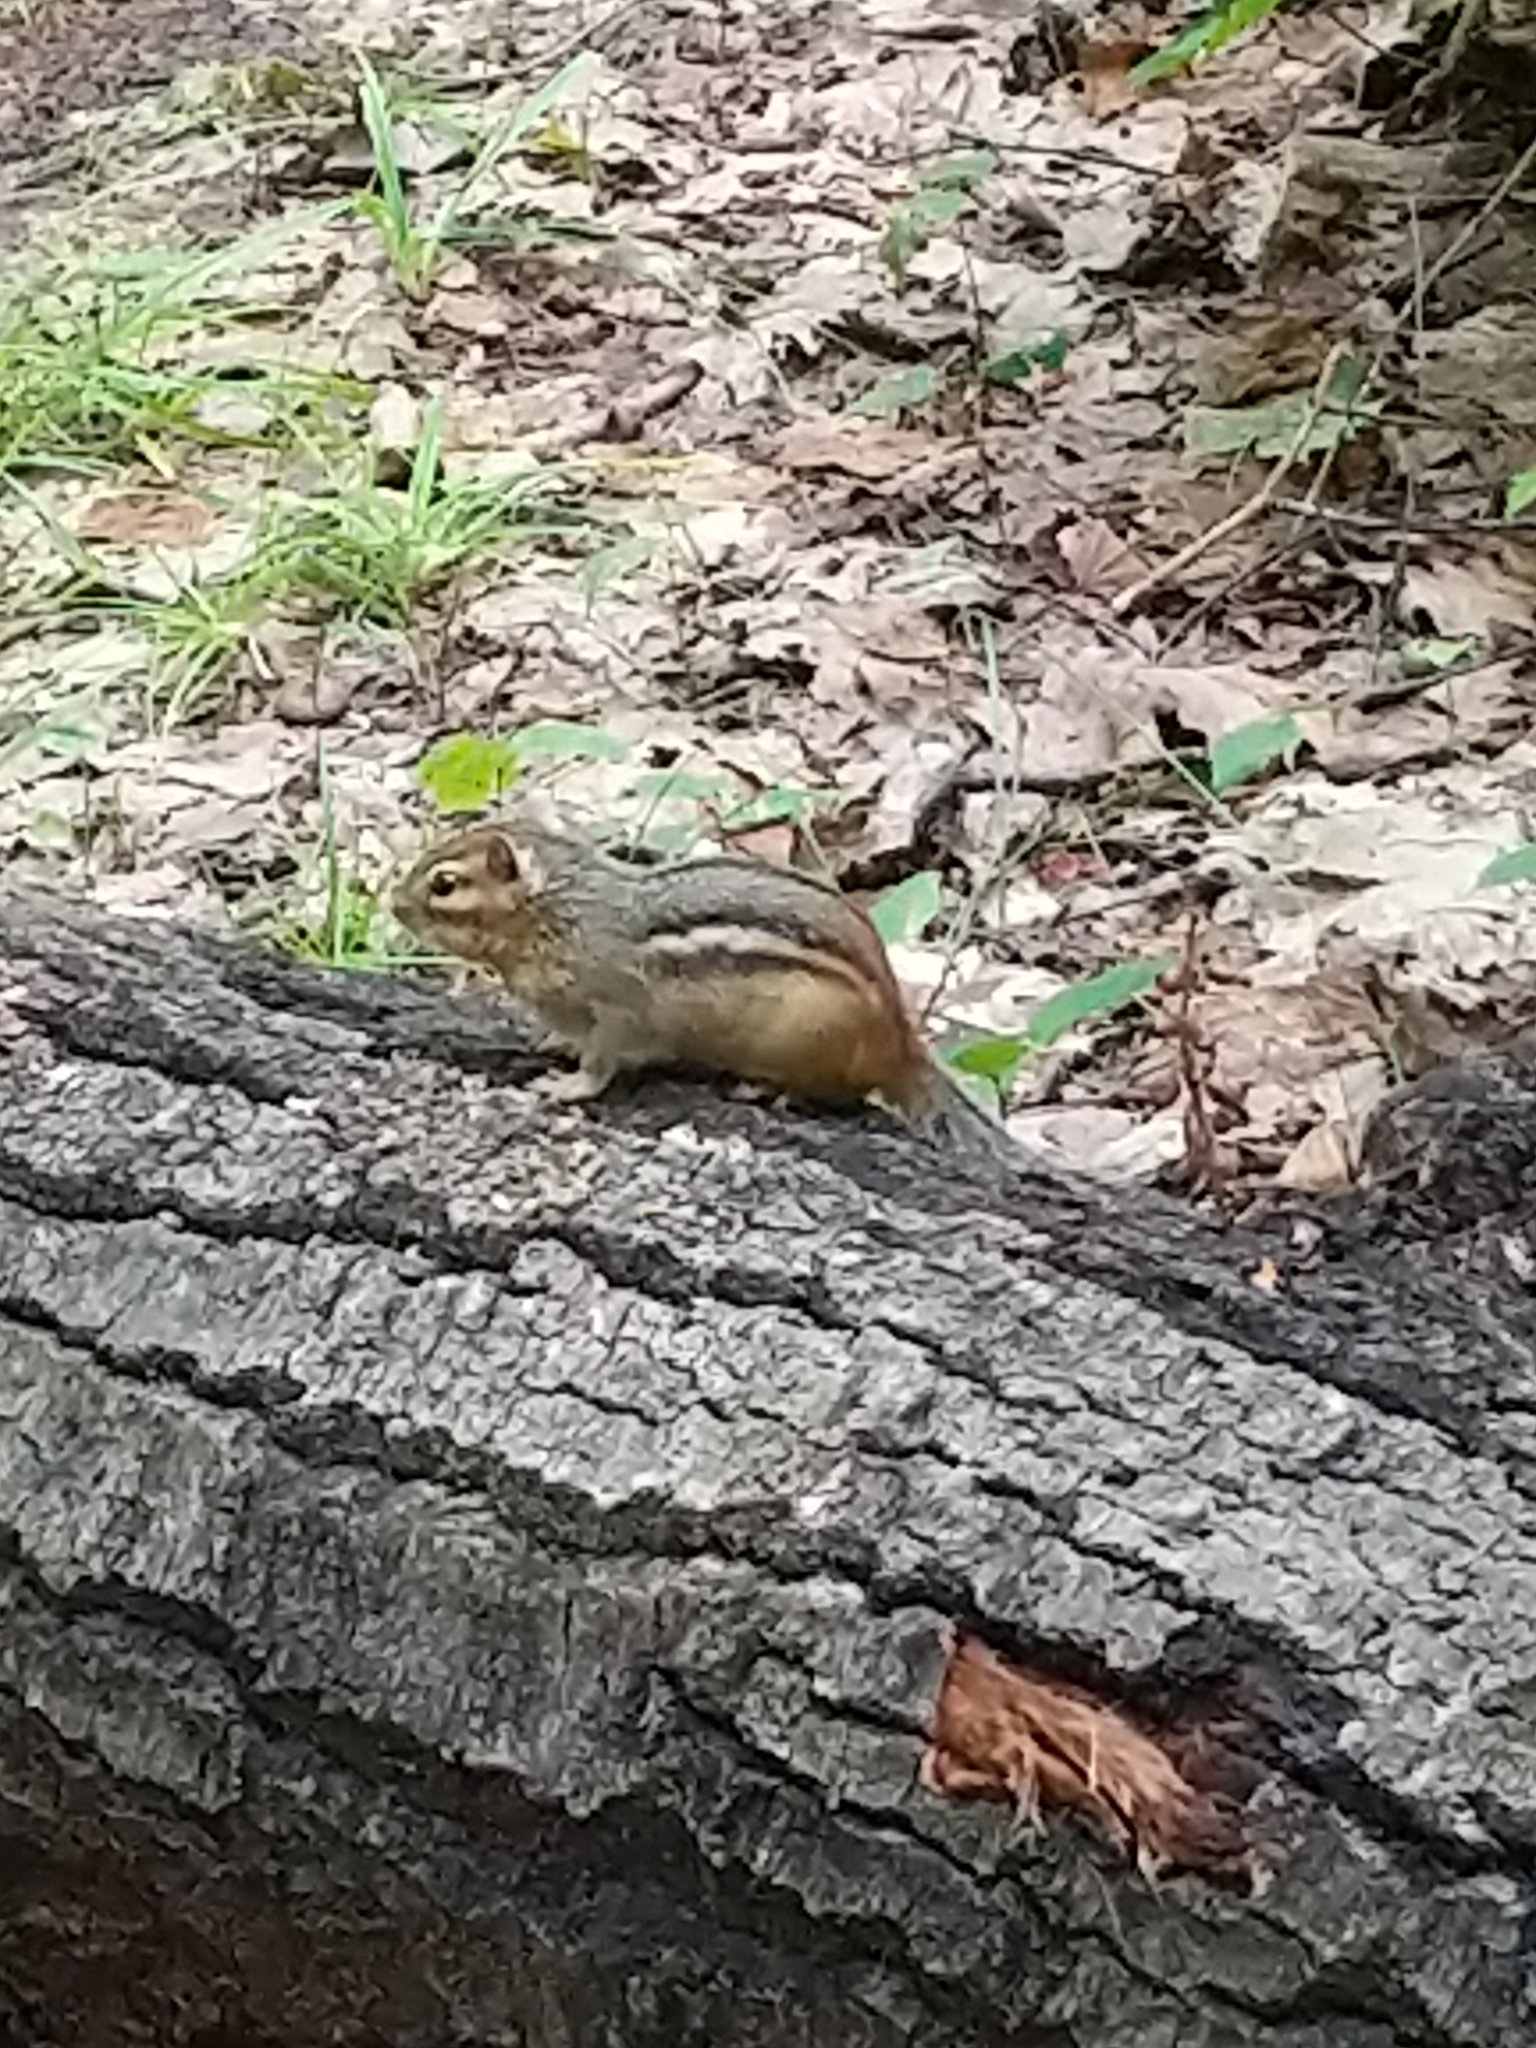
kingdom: Animalia
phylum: Chordata
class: Mammalia
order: Rodentia
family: Sciuridae
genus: Tamias
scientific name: Tamias striatus
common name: Eastern chipmunk
